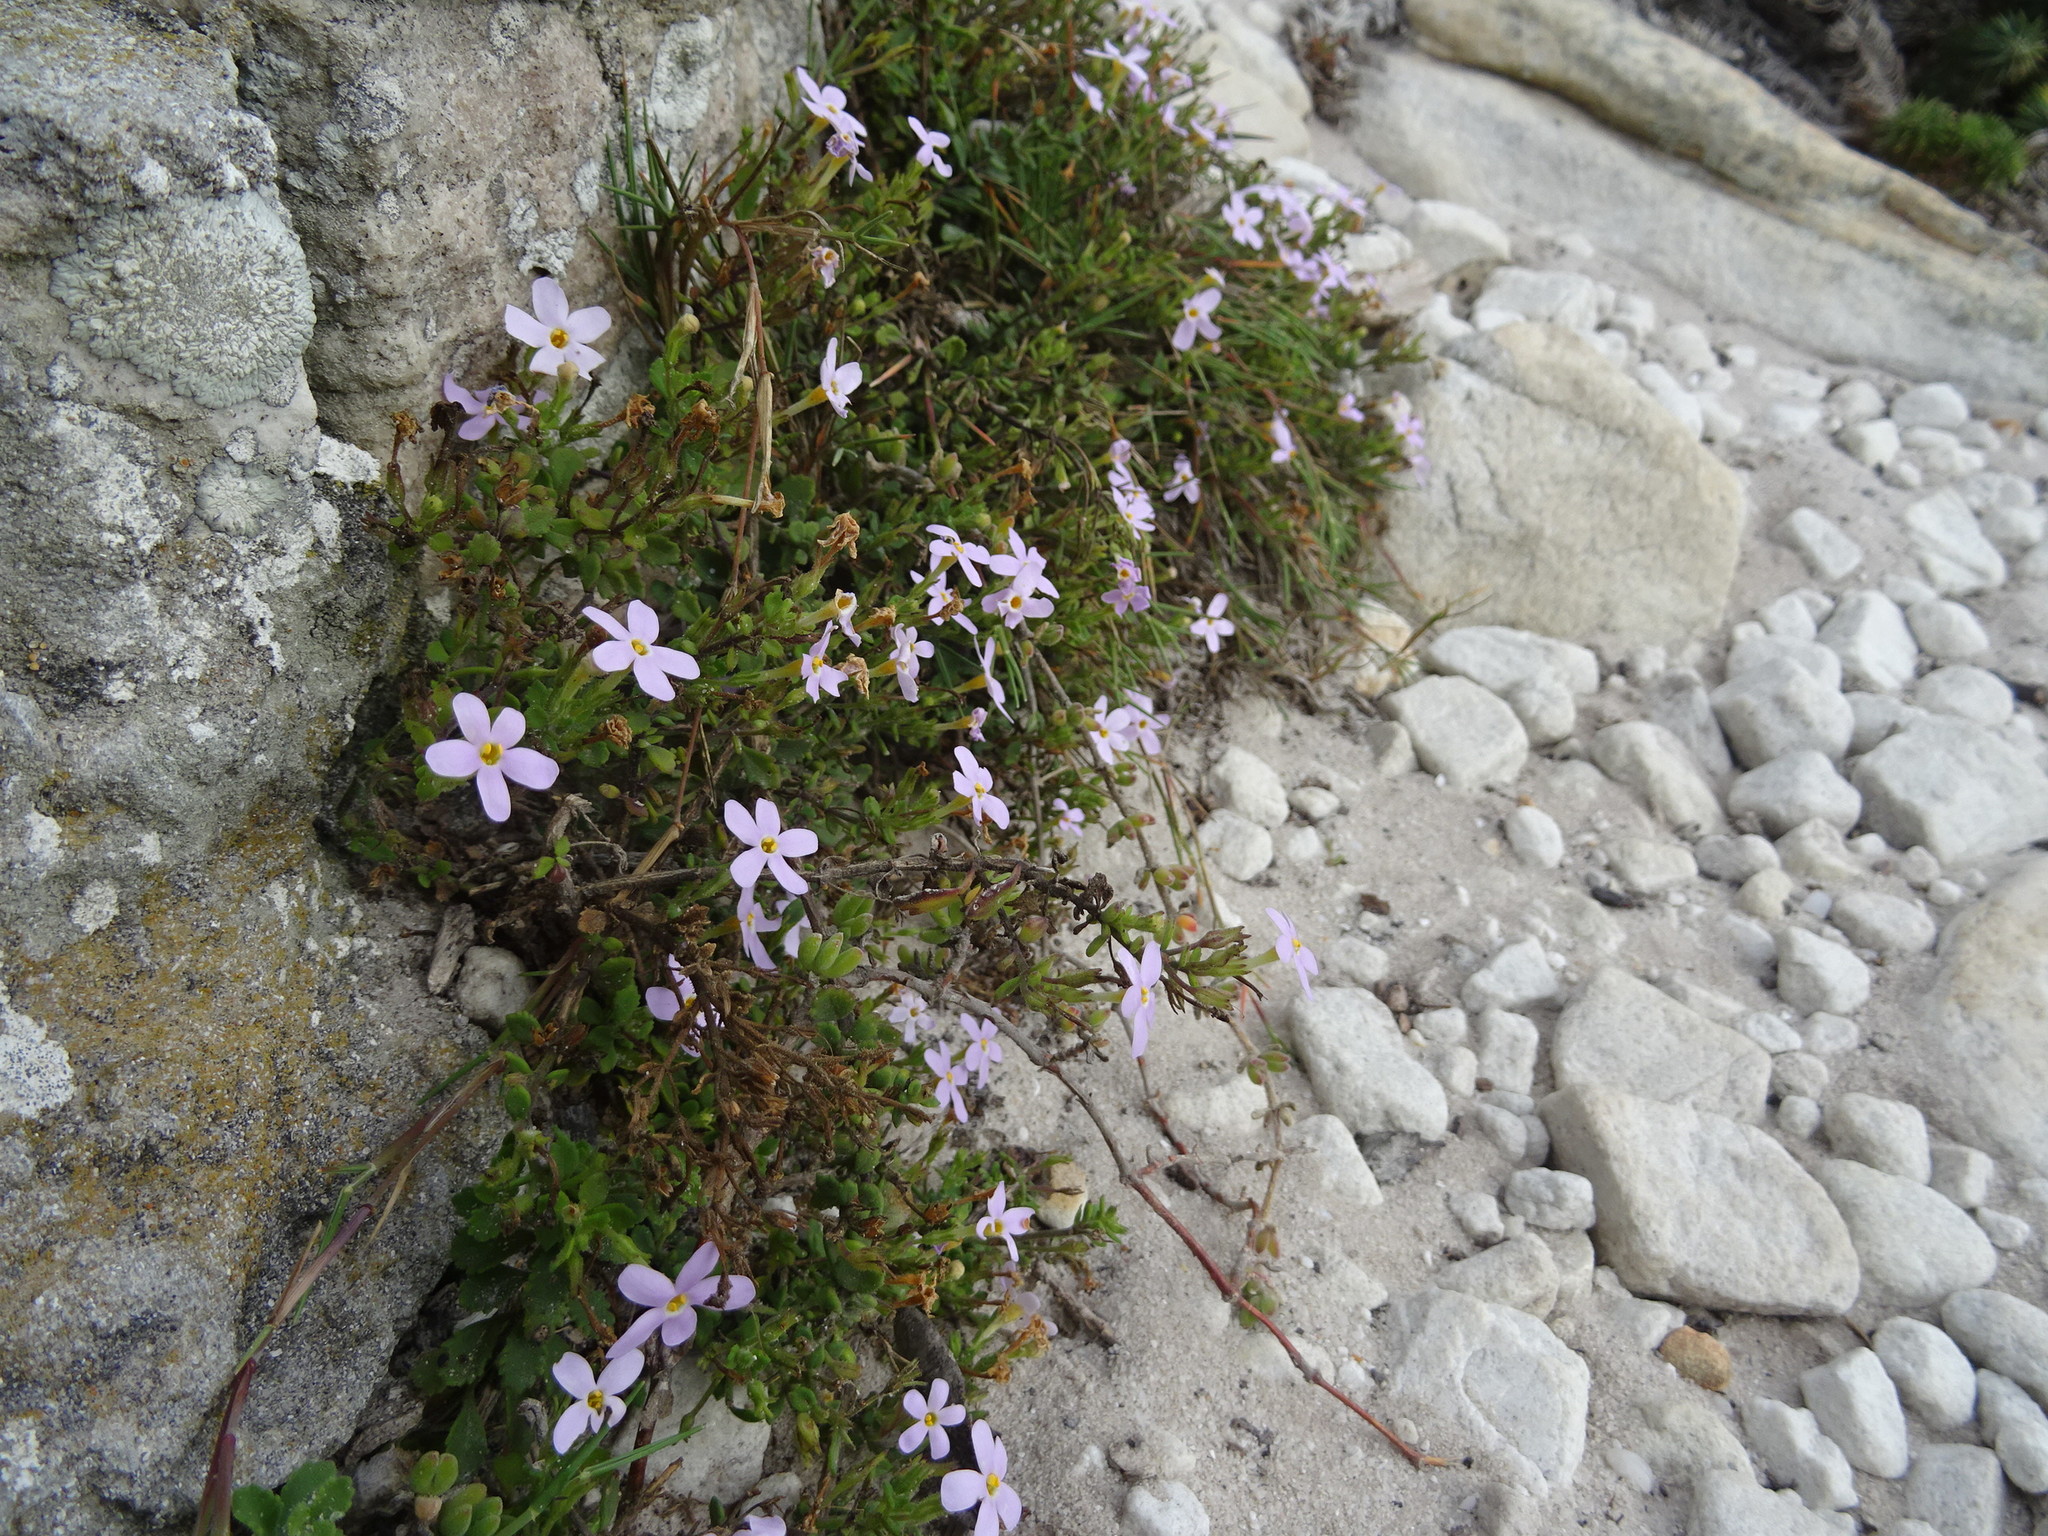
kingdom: Plantae
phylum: Tracheophyta
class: Magnoliopsida
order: Lamiales
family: Scrophulariaceae
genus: Chaenostoma
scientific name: Chaenostoma hispidum
